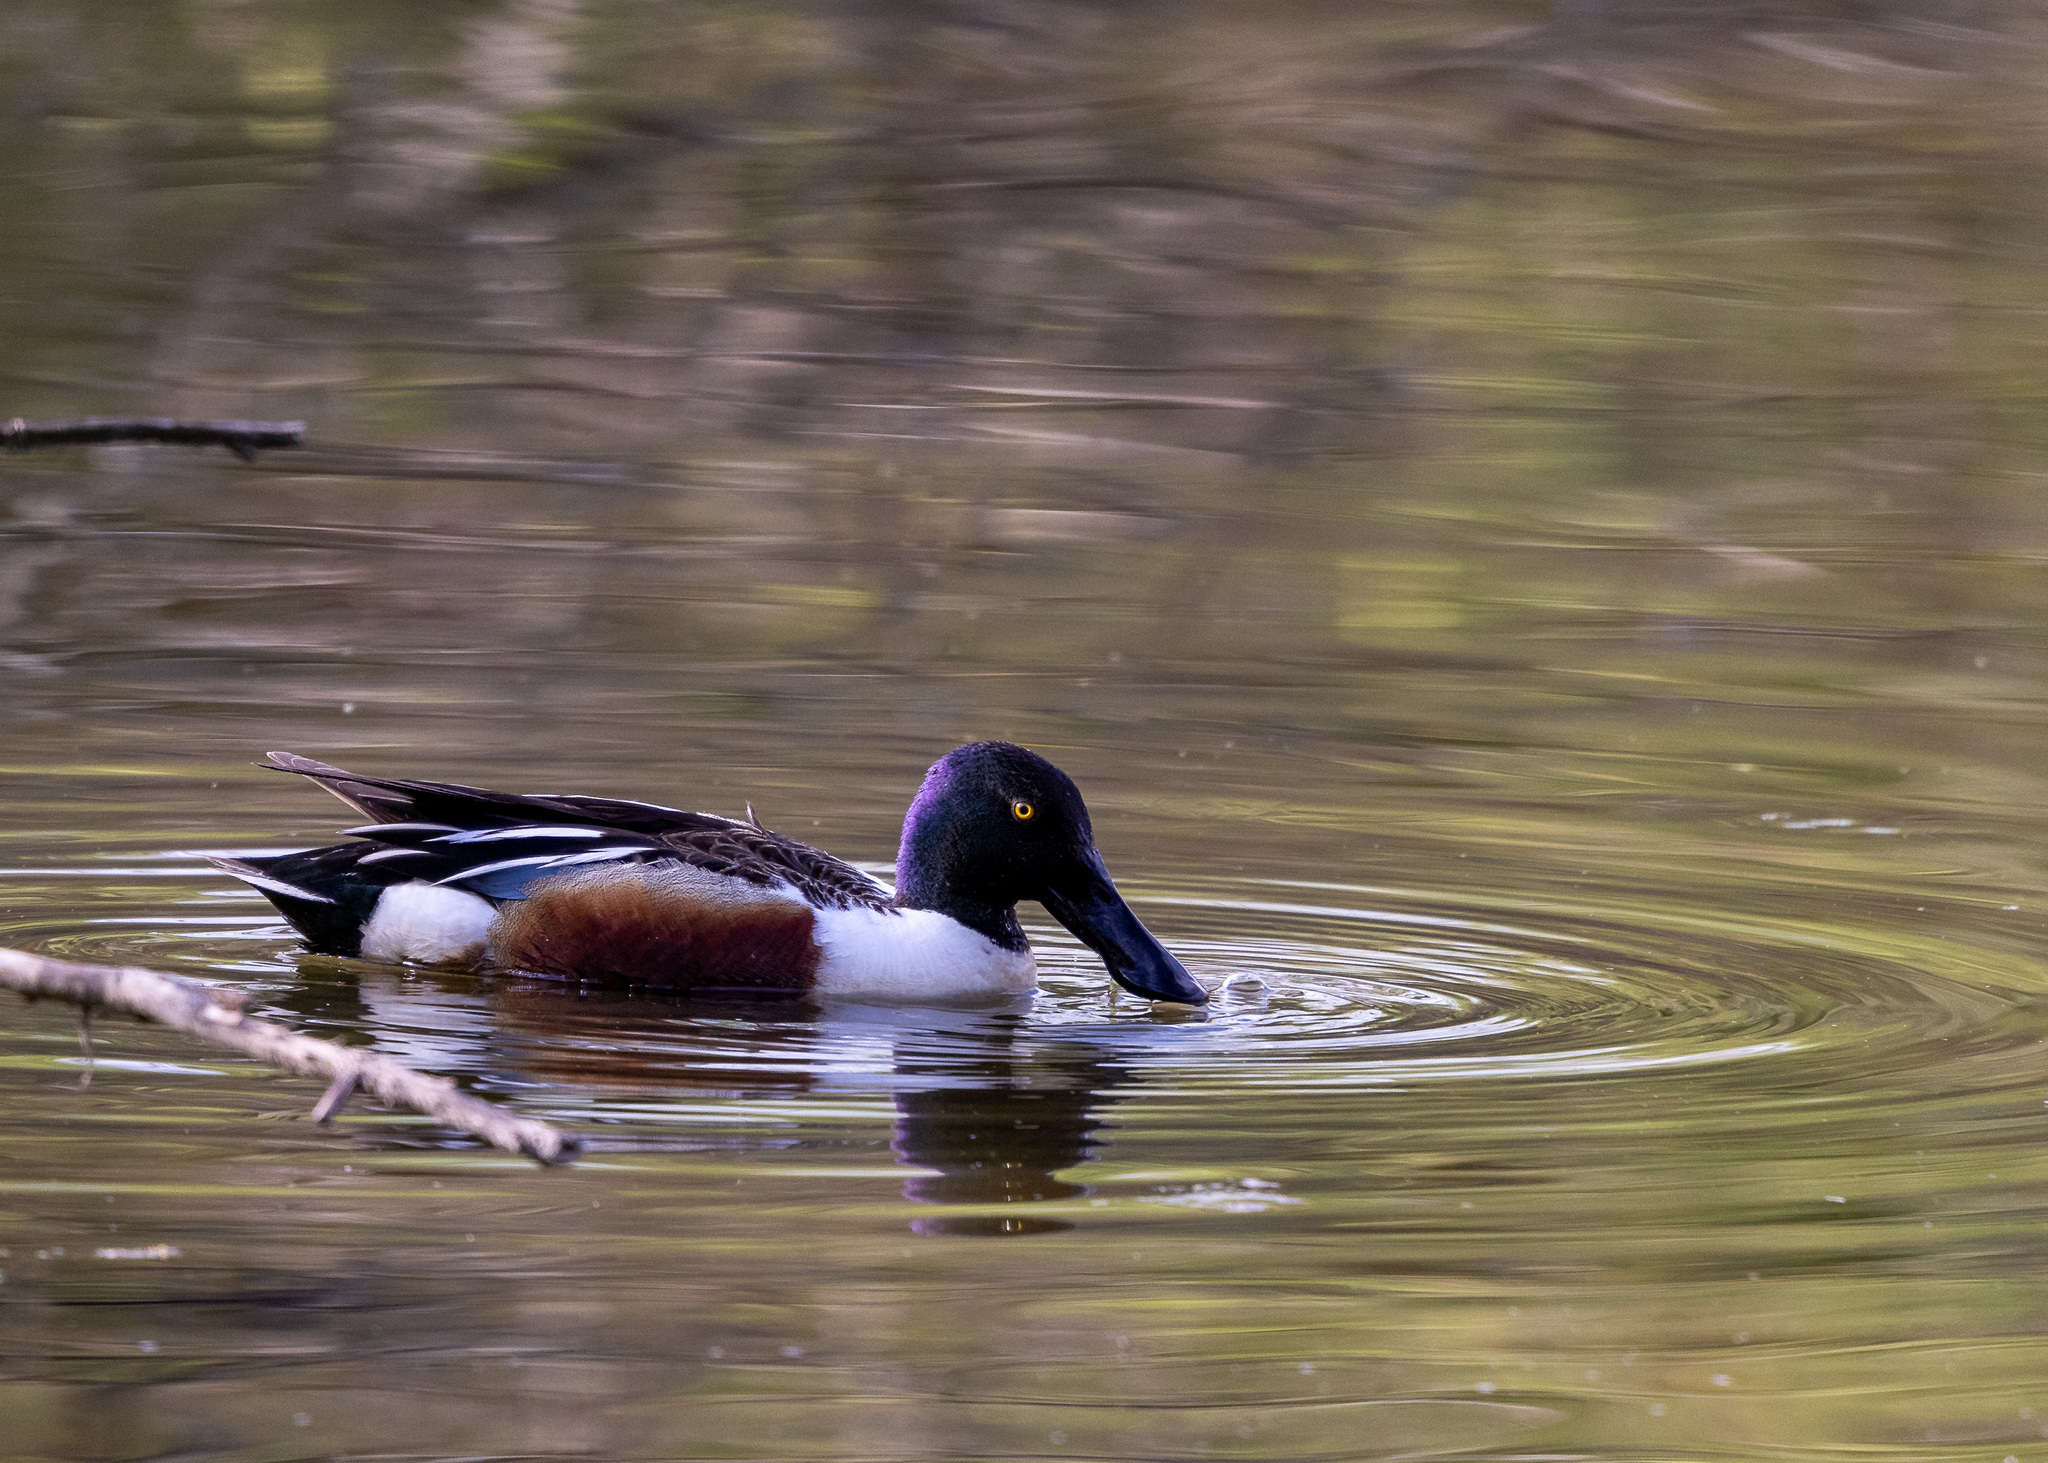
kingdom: Animalia
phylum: Chordata
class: Aves
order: Anseriformes
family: Anatidae
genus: Spatula
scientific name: Spatula clypeata
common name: Northern shoveler
